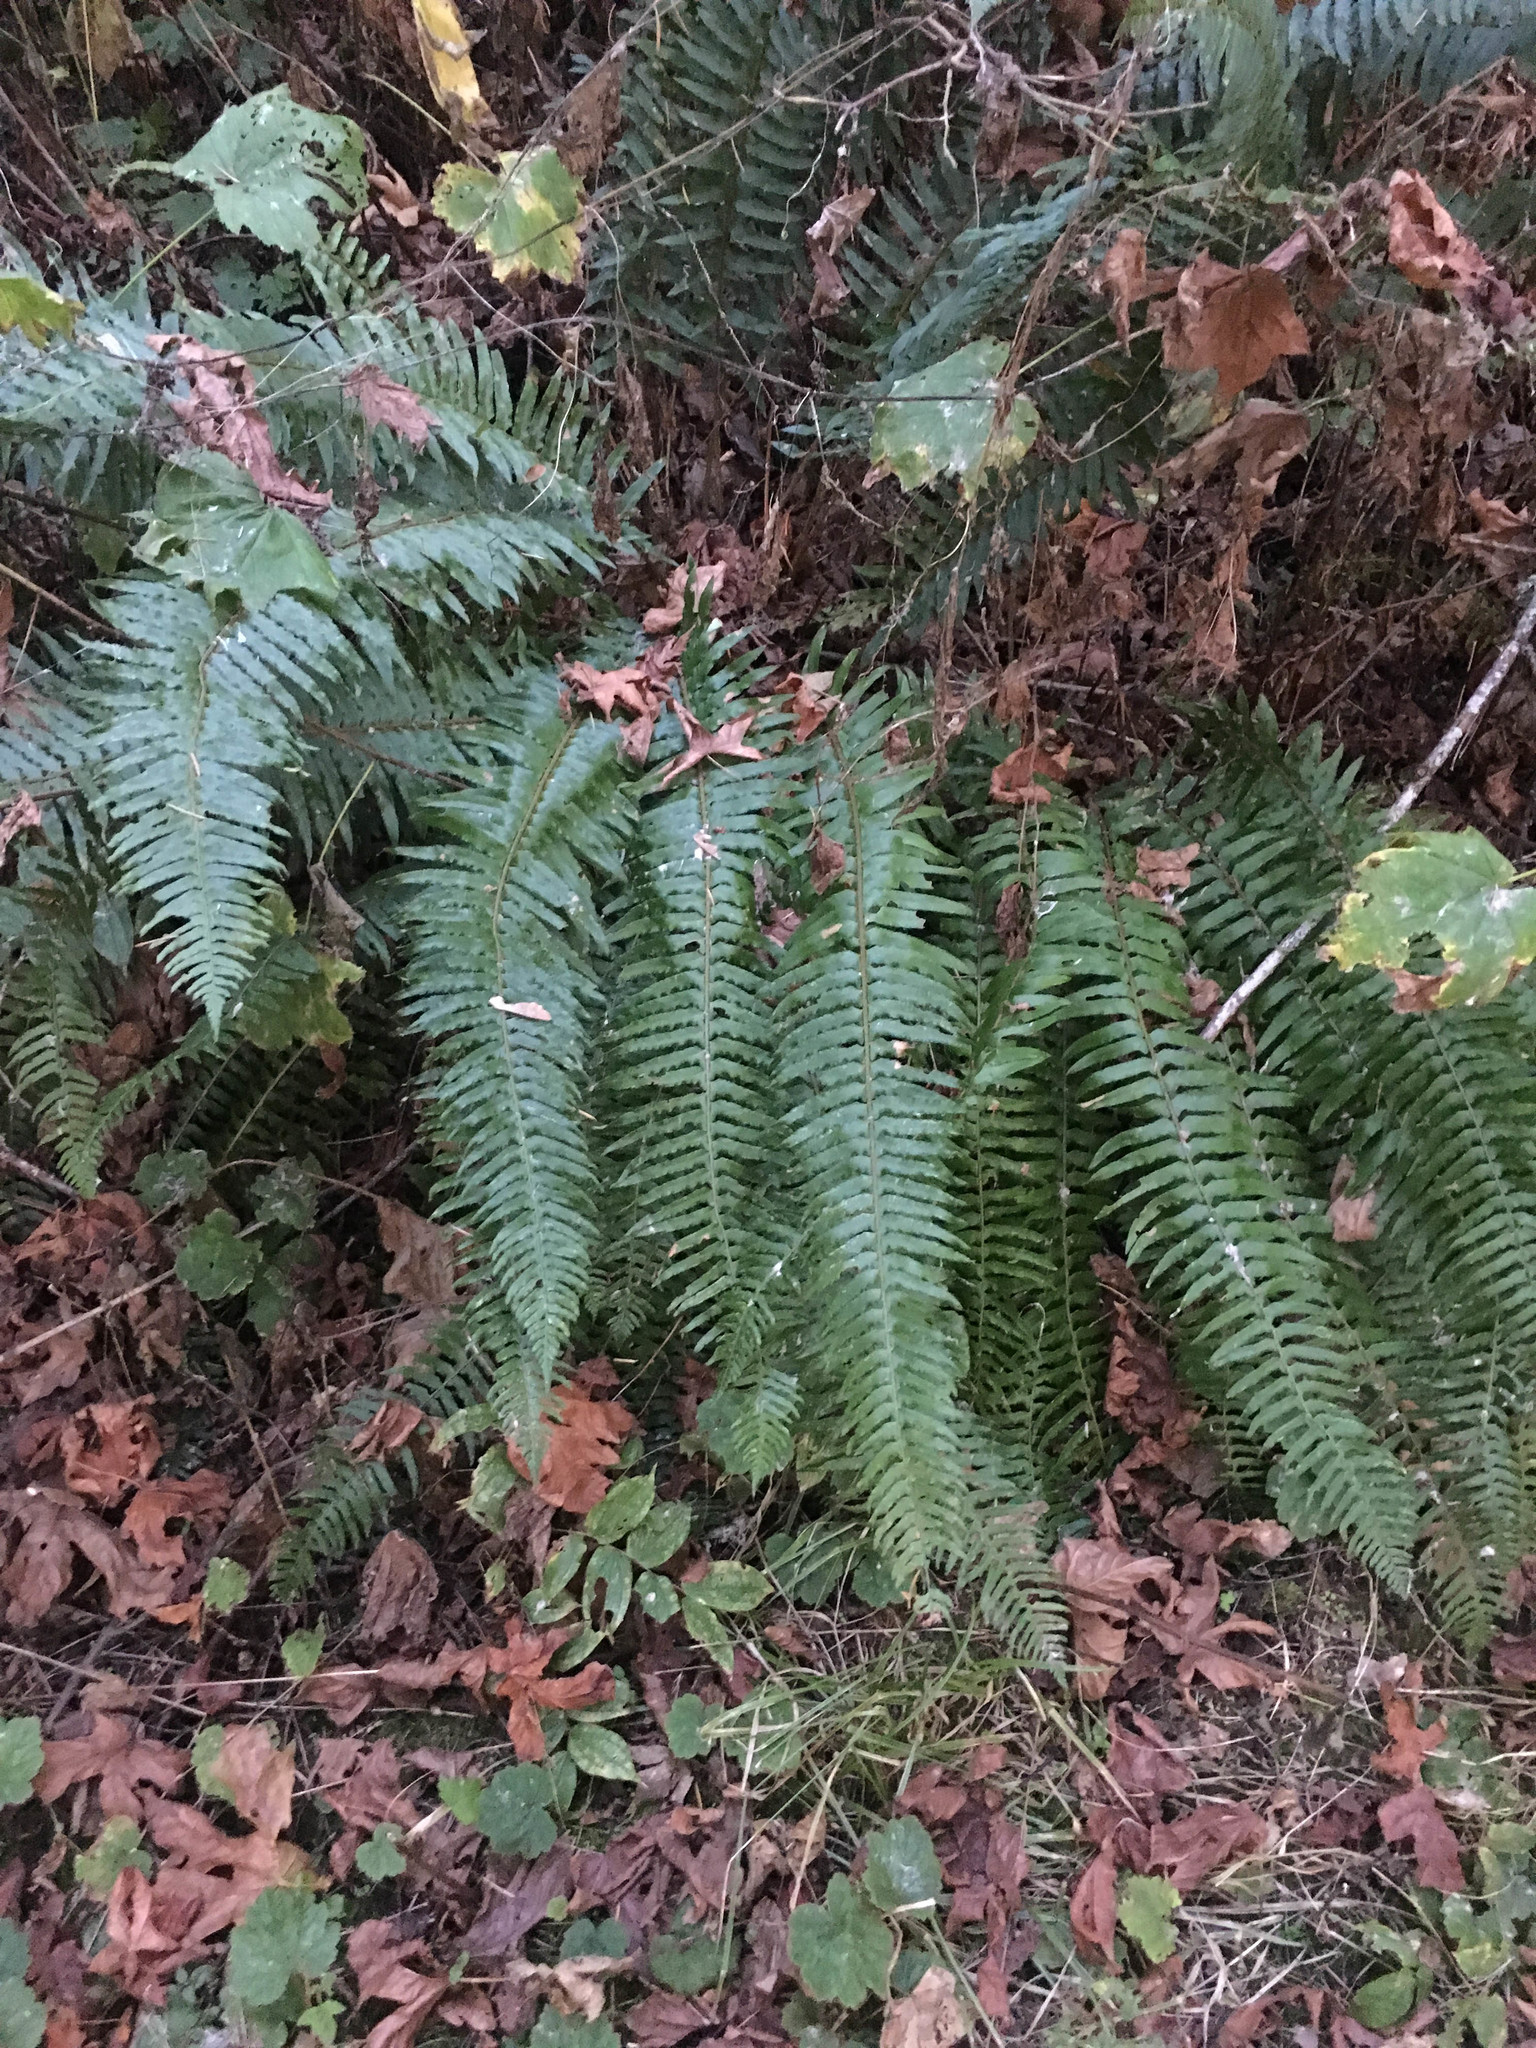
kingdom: Plantae
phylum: Tracheophyta
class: Polypodiopsida
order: Polypodiales
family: Dryopteridaceae
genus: Polystichum
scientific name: Polystichum munitum
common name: Western sword-fern
